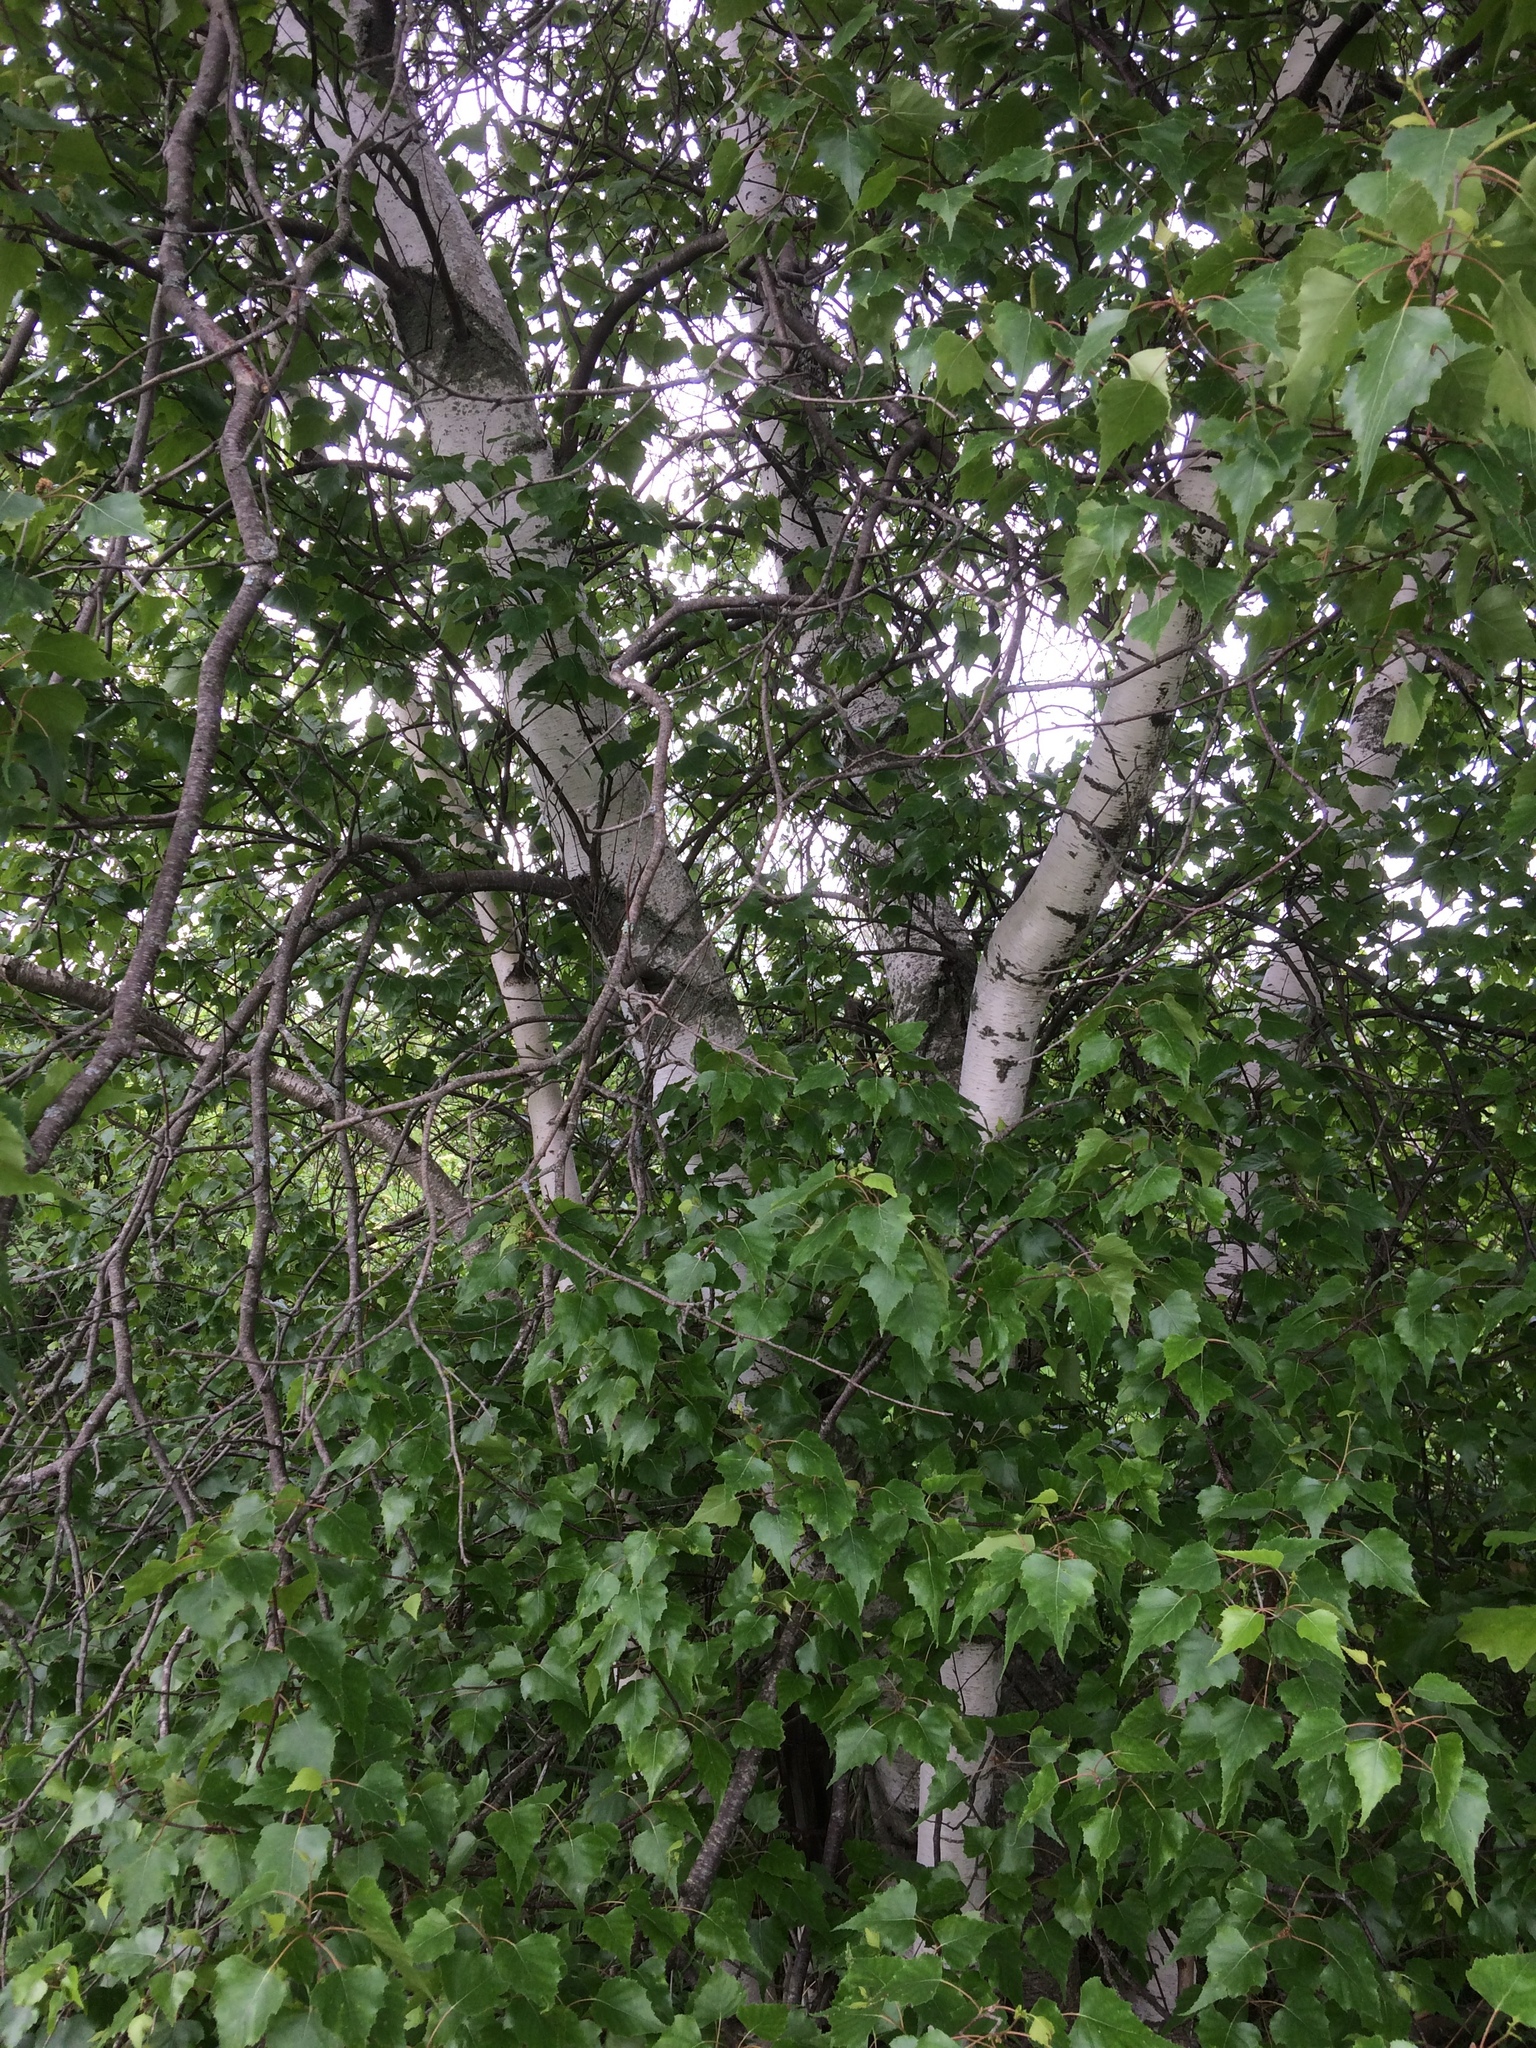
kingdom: Plantae
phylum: Tracheophyta
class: Magnoliopsida
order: Fagales
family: Betulaceae
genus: Betula
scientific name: Betula populifolia
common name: Fire birch
